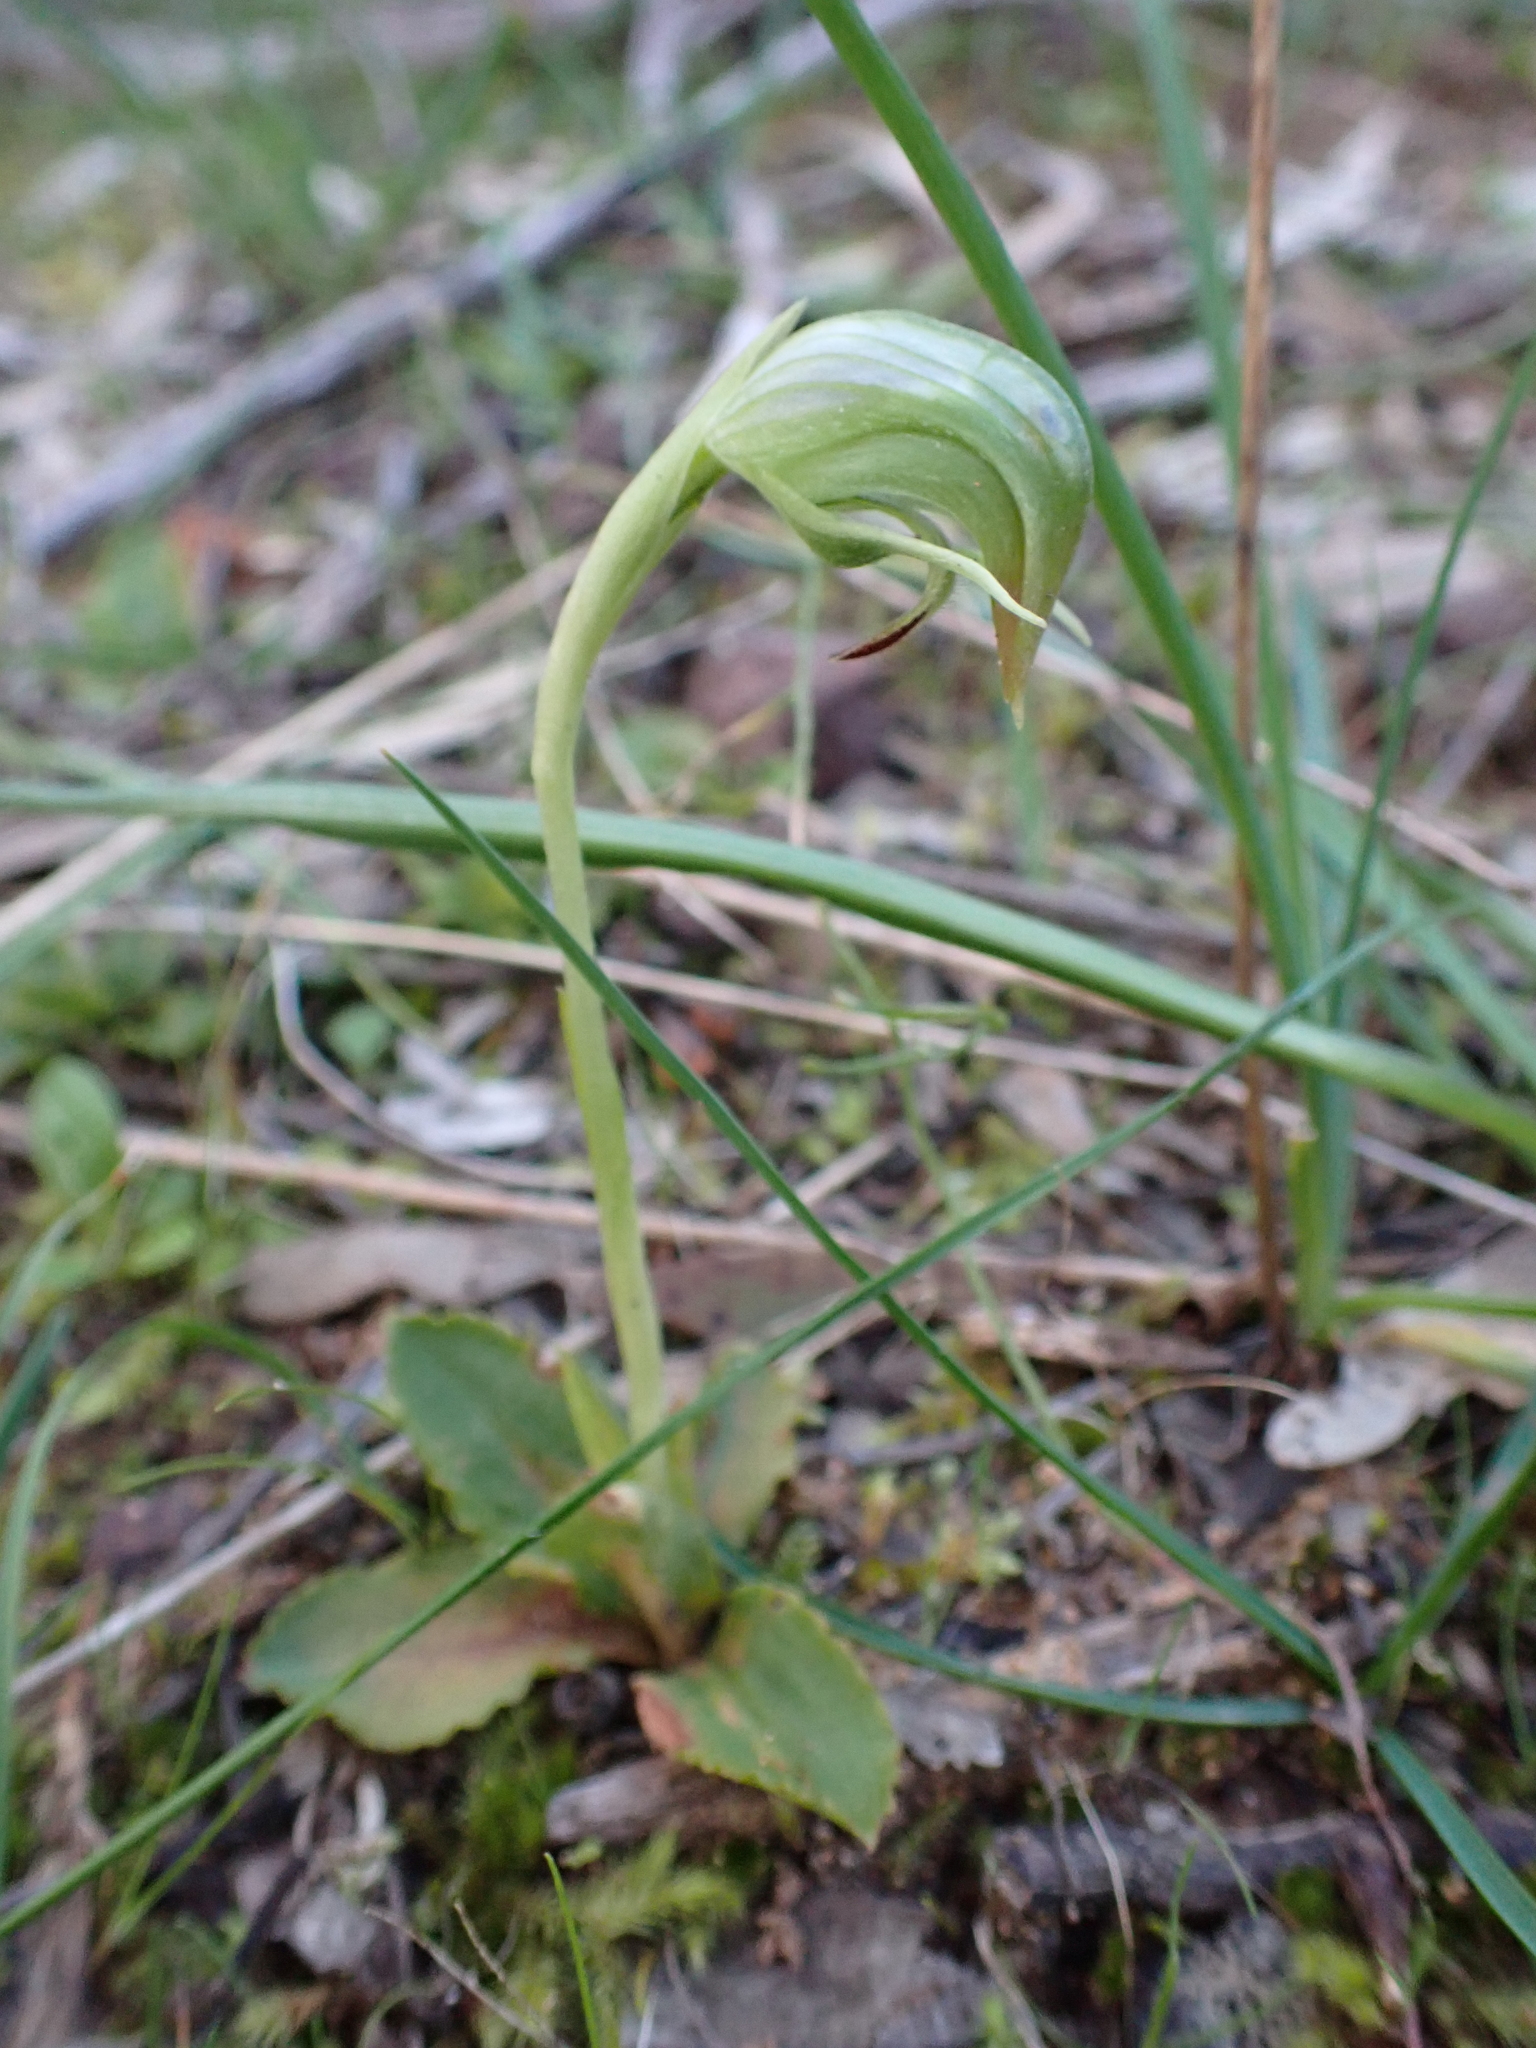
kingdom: Plantae
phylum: Tracheophyta
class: Liliopsida
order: Asparagales
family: Orchidaceae
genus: Pterostylis
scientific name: Pterostylis nutans
